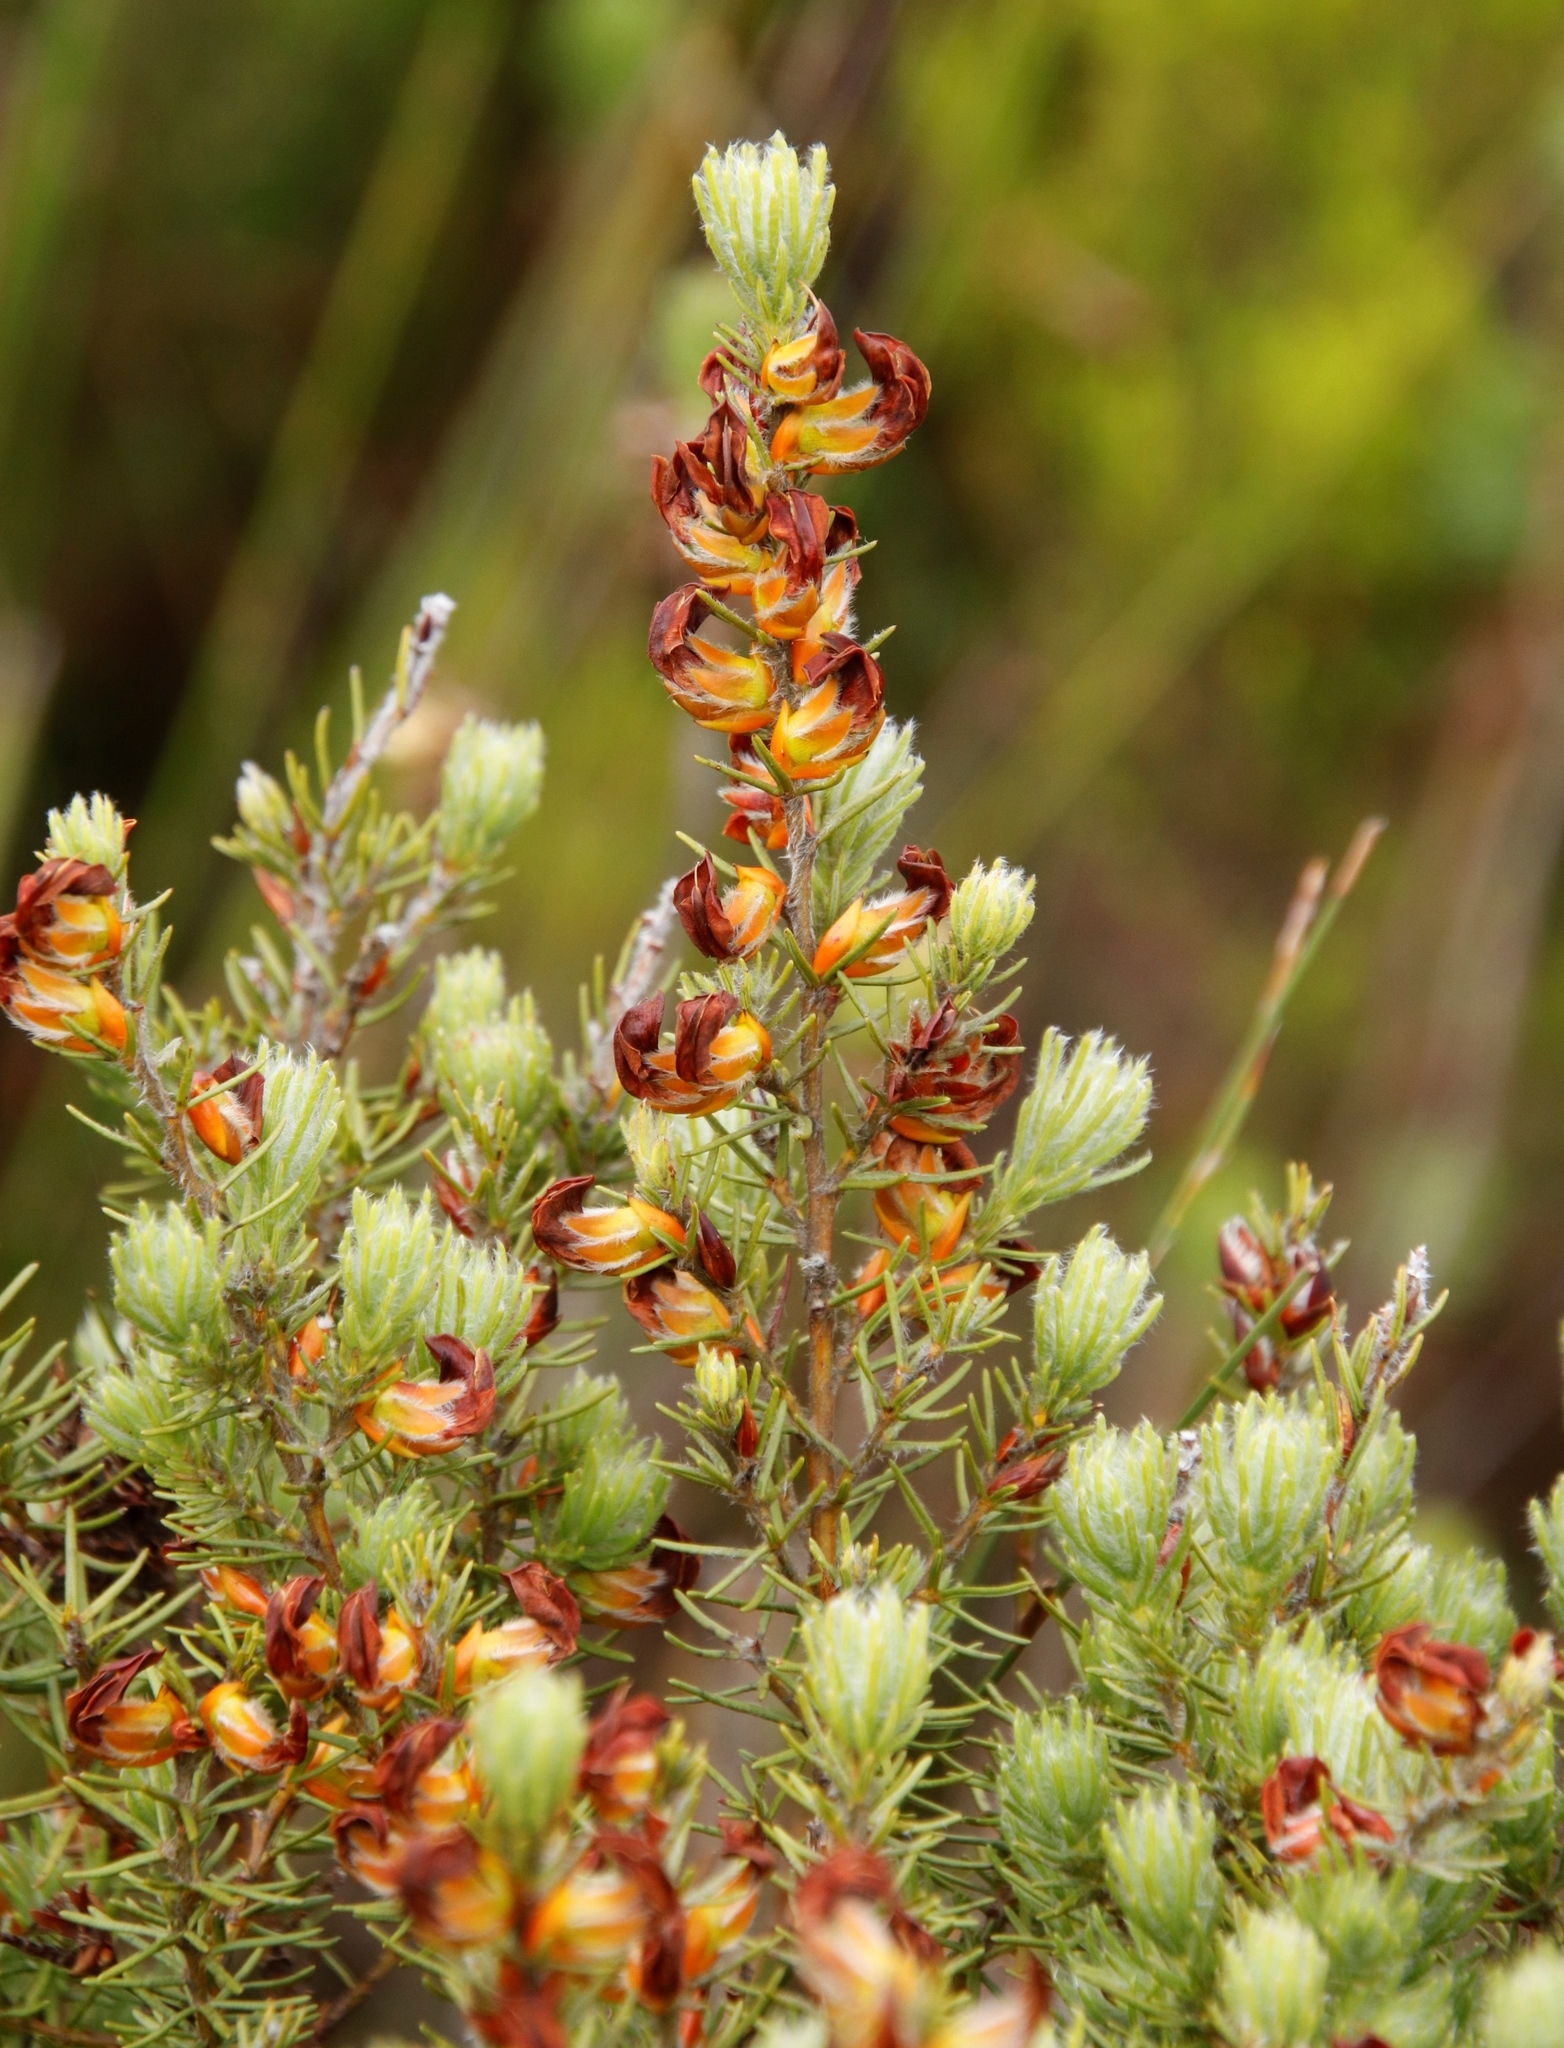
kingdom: Plantae
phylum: Tracheophyta
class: Magnoliopsida
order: Fabales
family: Fabaceae
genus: Cyclopia
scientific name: Cyclopia meyeriana
